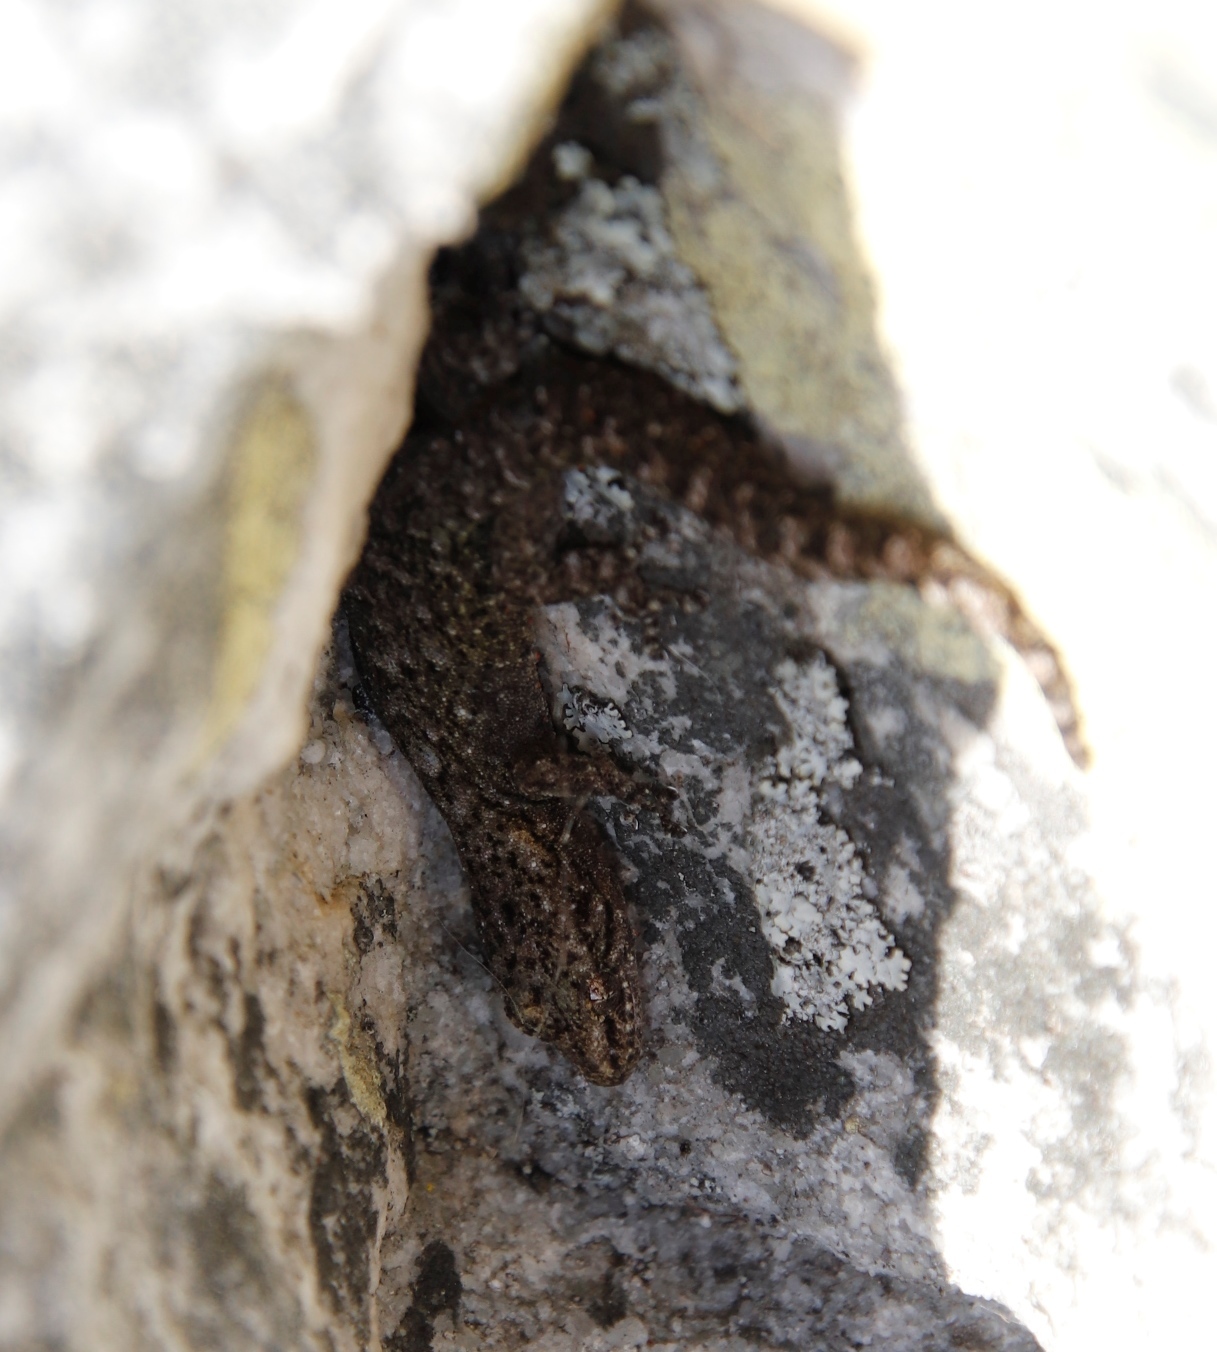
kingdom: Animalia
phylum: Chordata
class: Squamata
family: Gekkonidae
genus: Afrogecko
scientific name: Afrogecko porphyreus
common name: Marbled leaf-toed gecko
